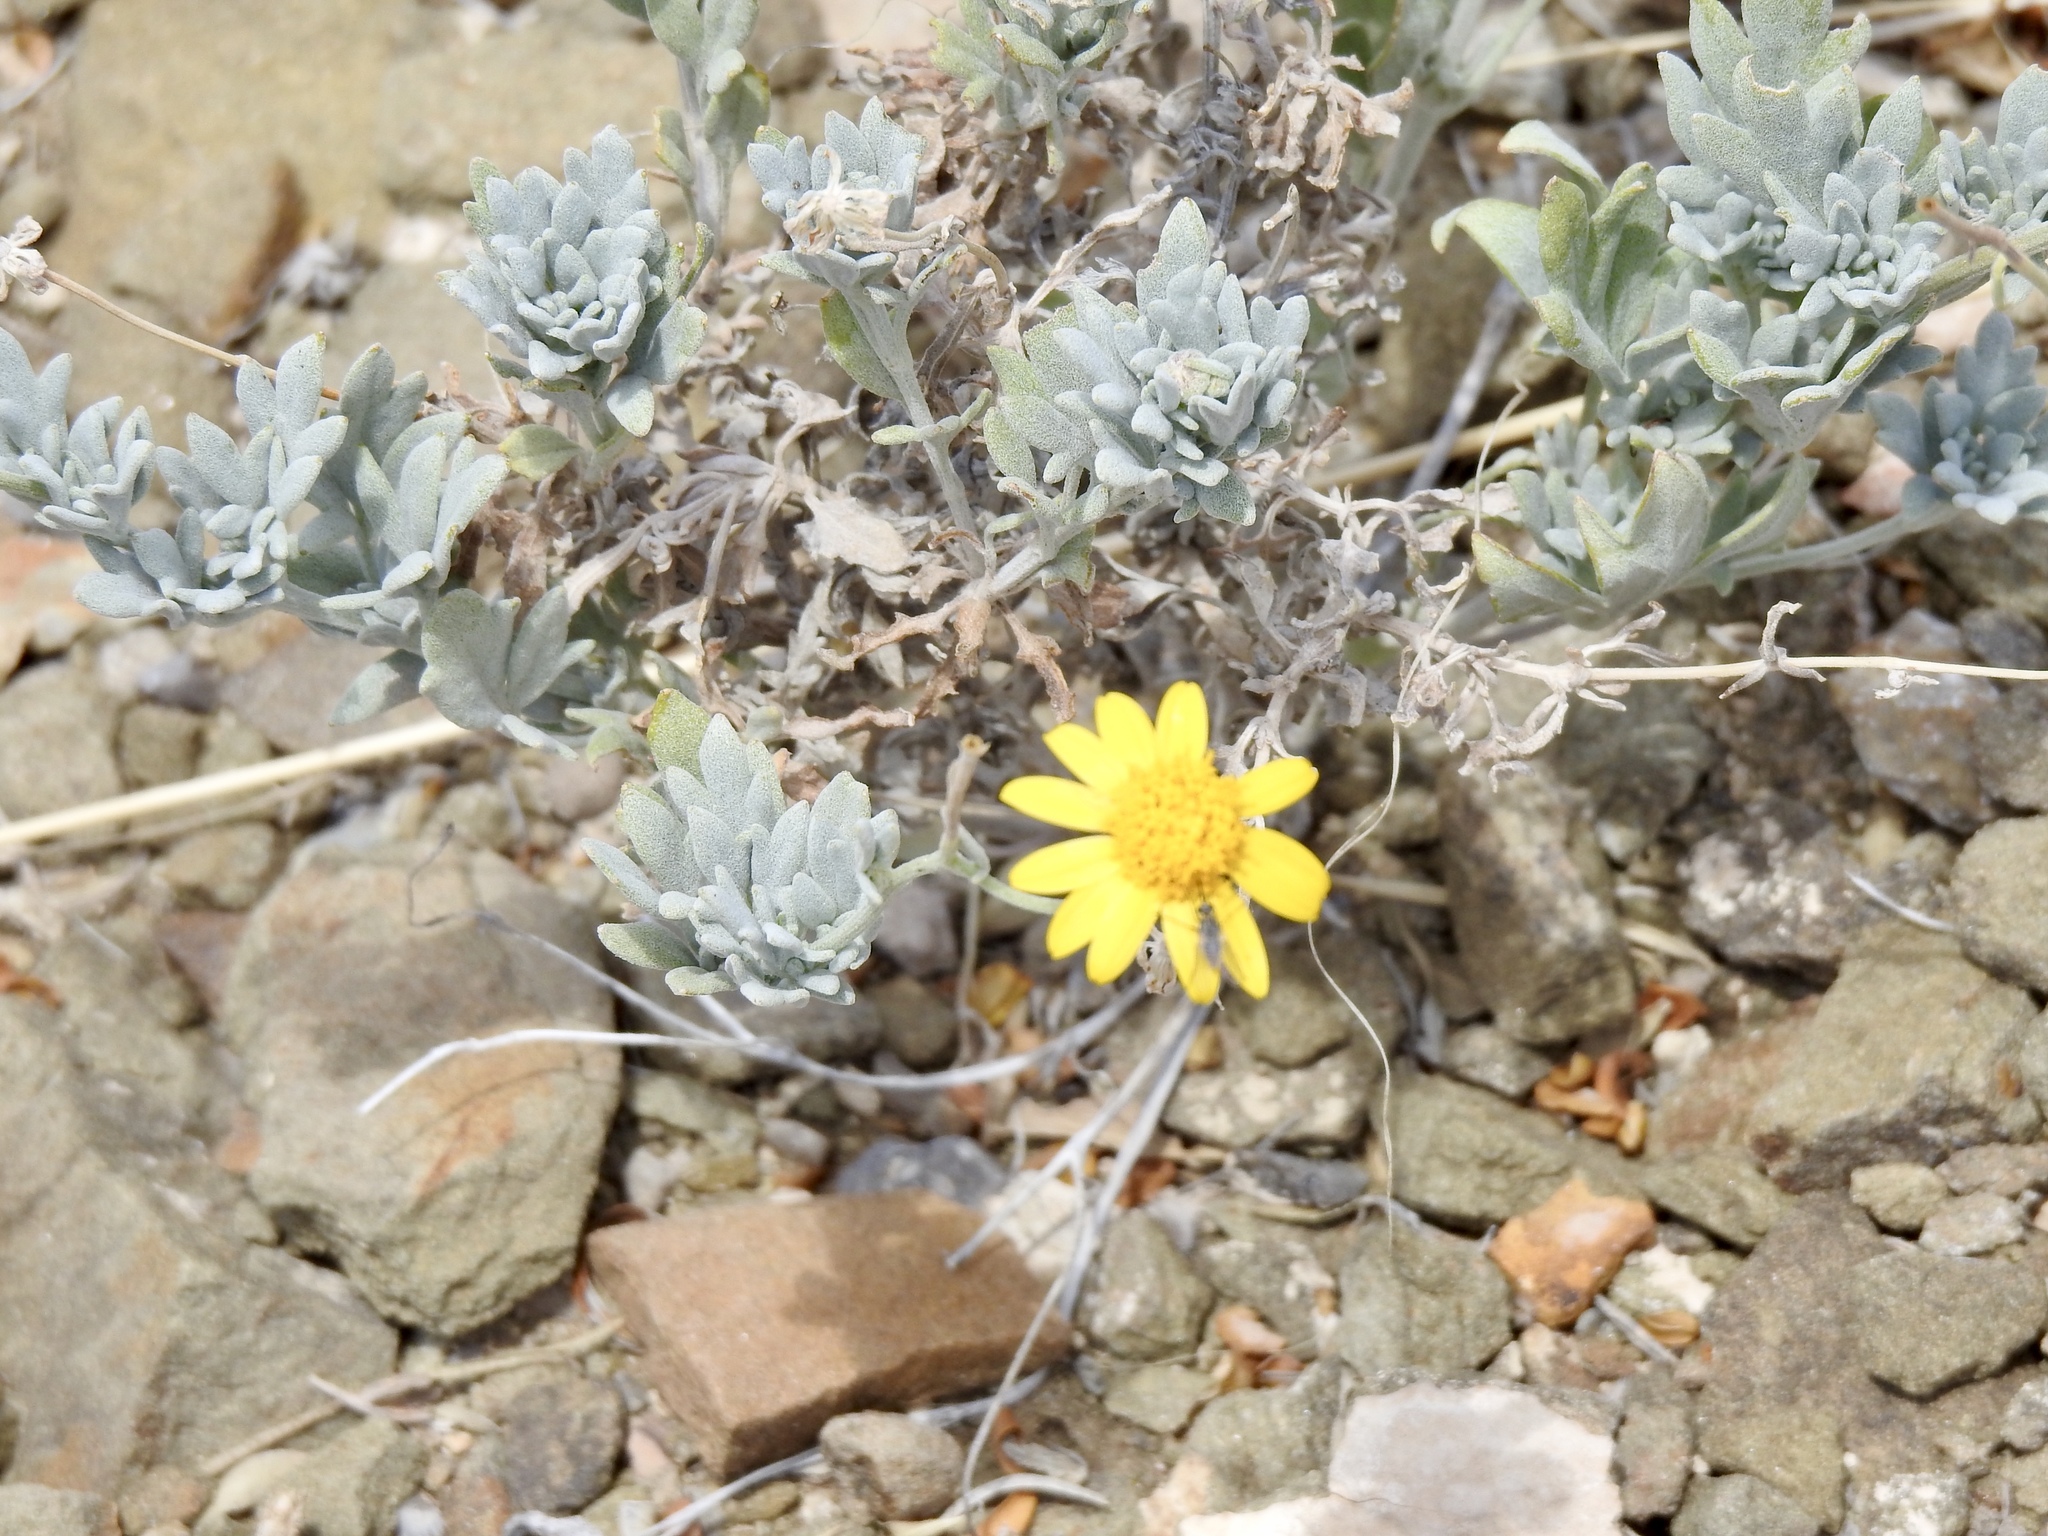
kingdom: Plantae
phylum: Tracheophyta
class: Magnoliopsida
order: Asterales
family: Asteraceae
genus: Picradeniopsis
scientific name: Picradeniopsis absinthifolia
